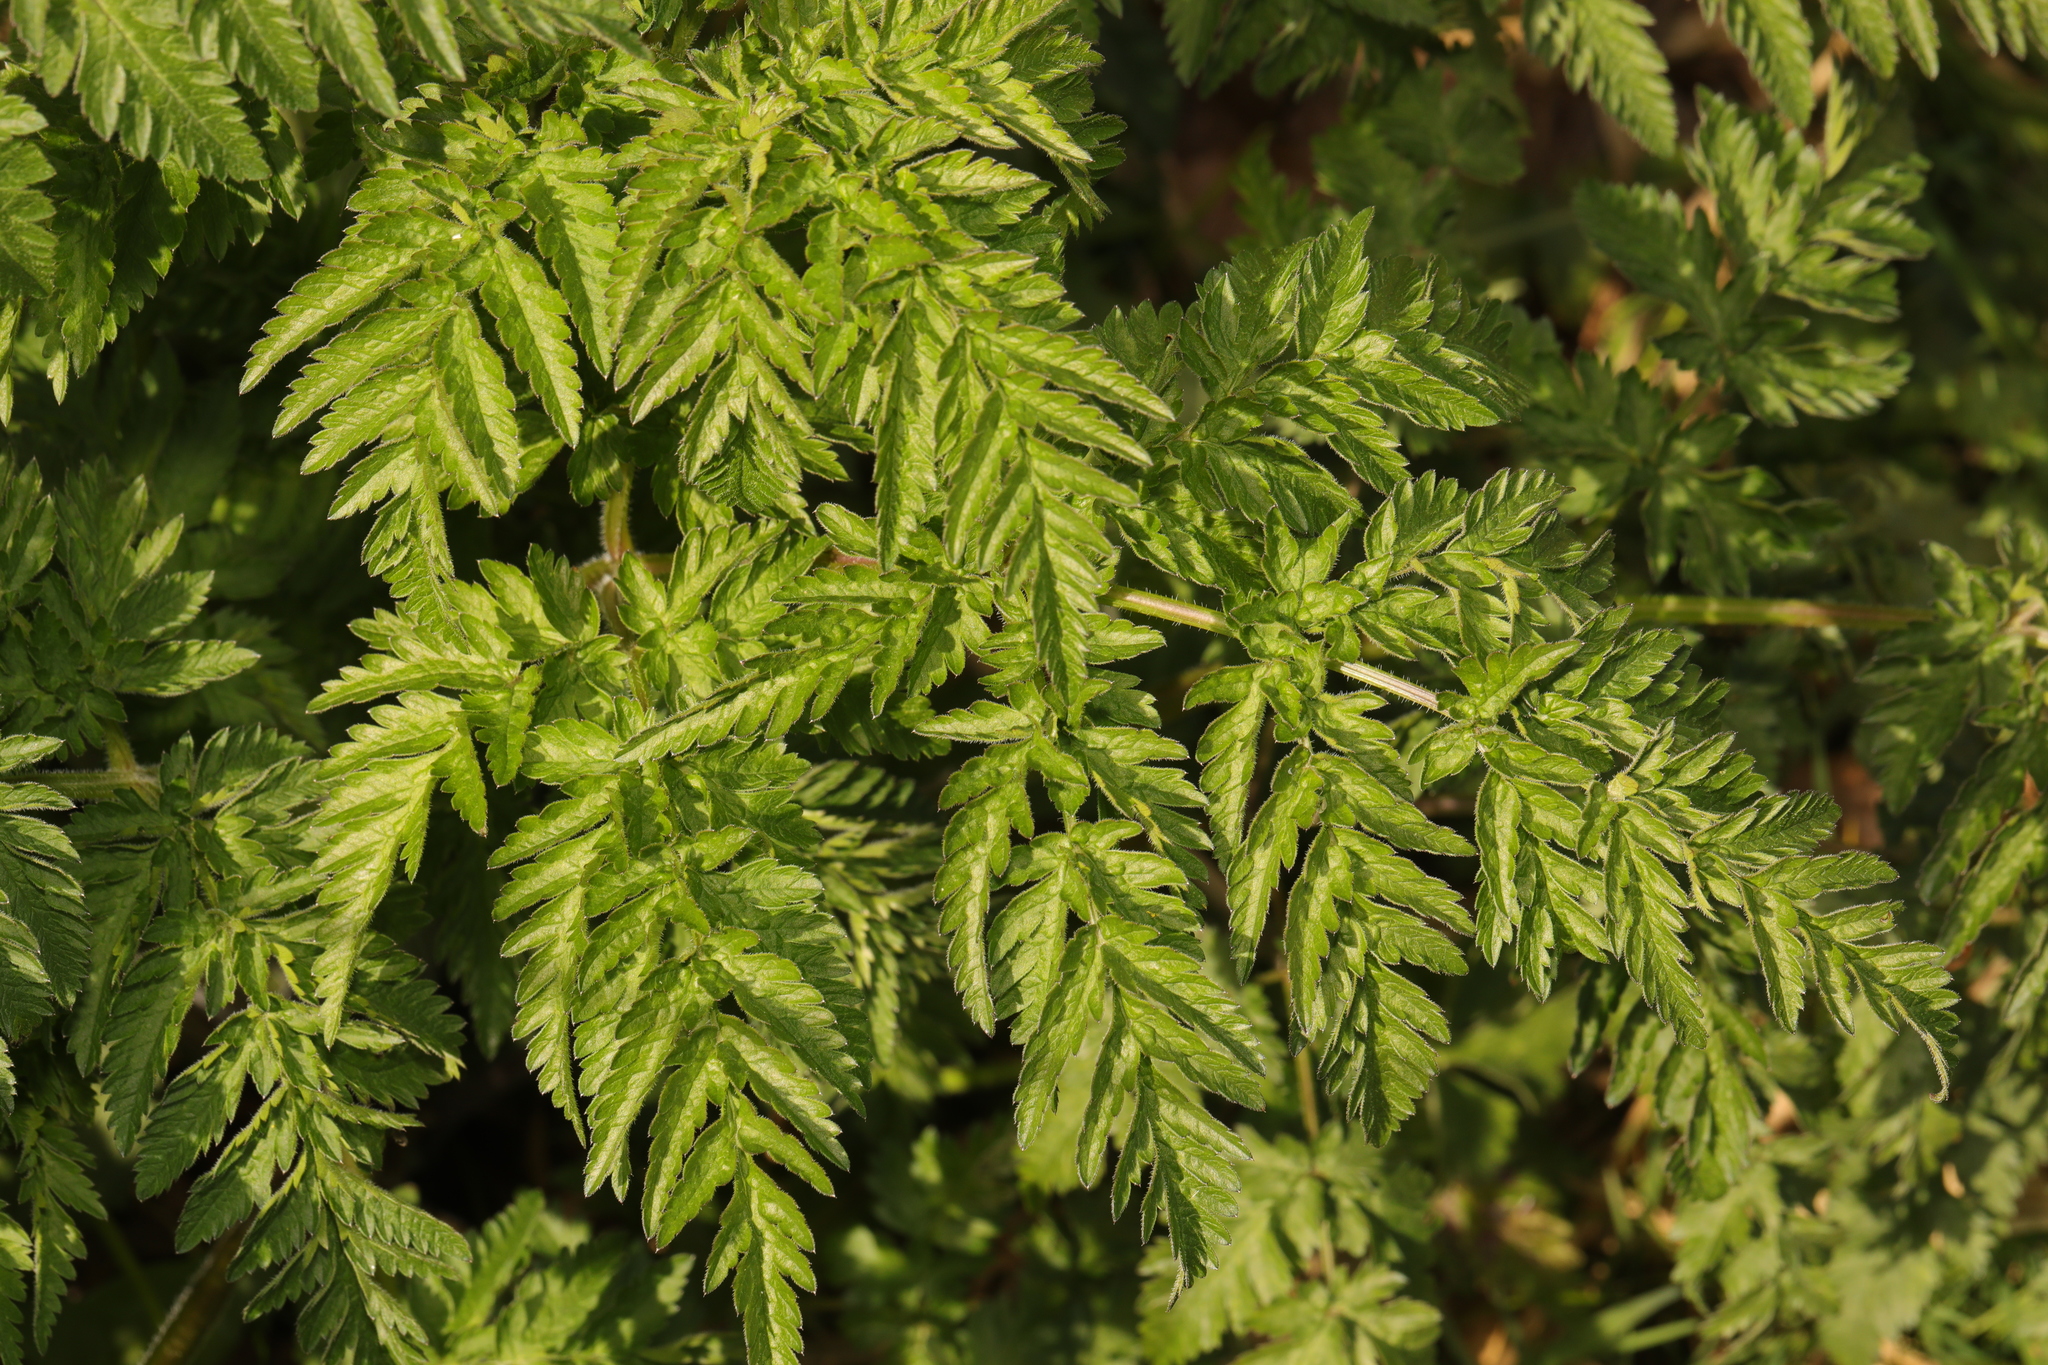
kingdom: Plantae
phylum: Tracheophyta
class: Magnoliopsida
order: Apiales
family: Apiaceae
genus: Anthriscus
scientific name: Anthriscus sylvestris
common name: Cow parsley
